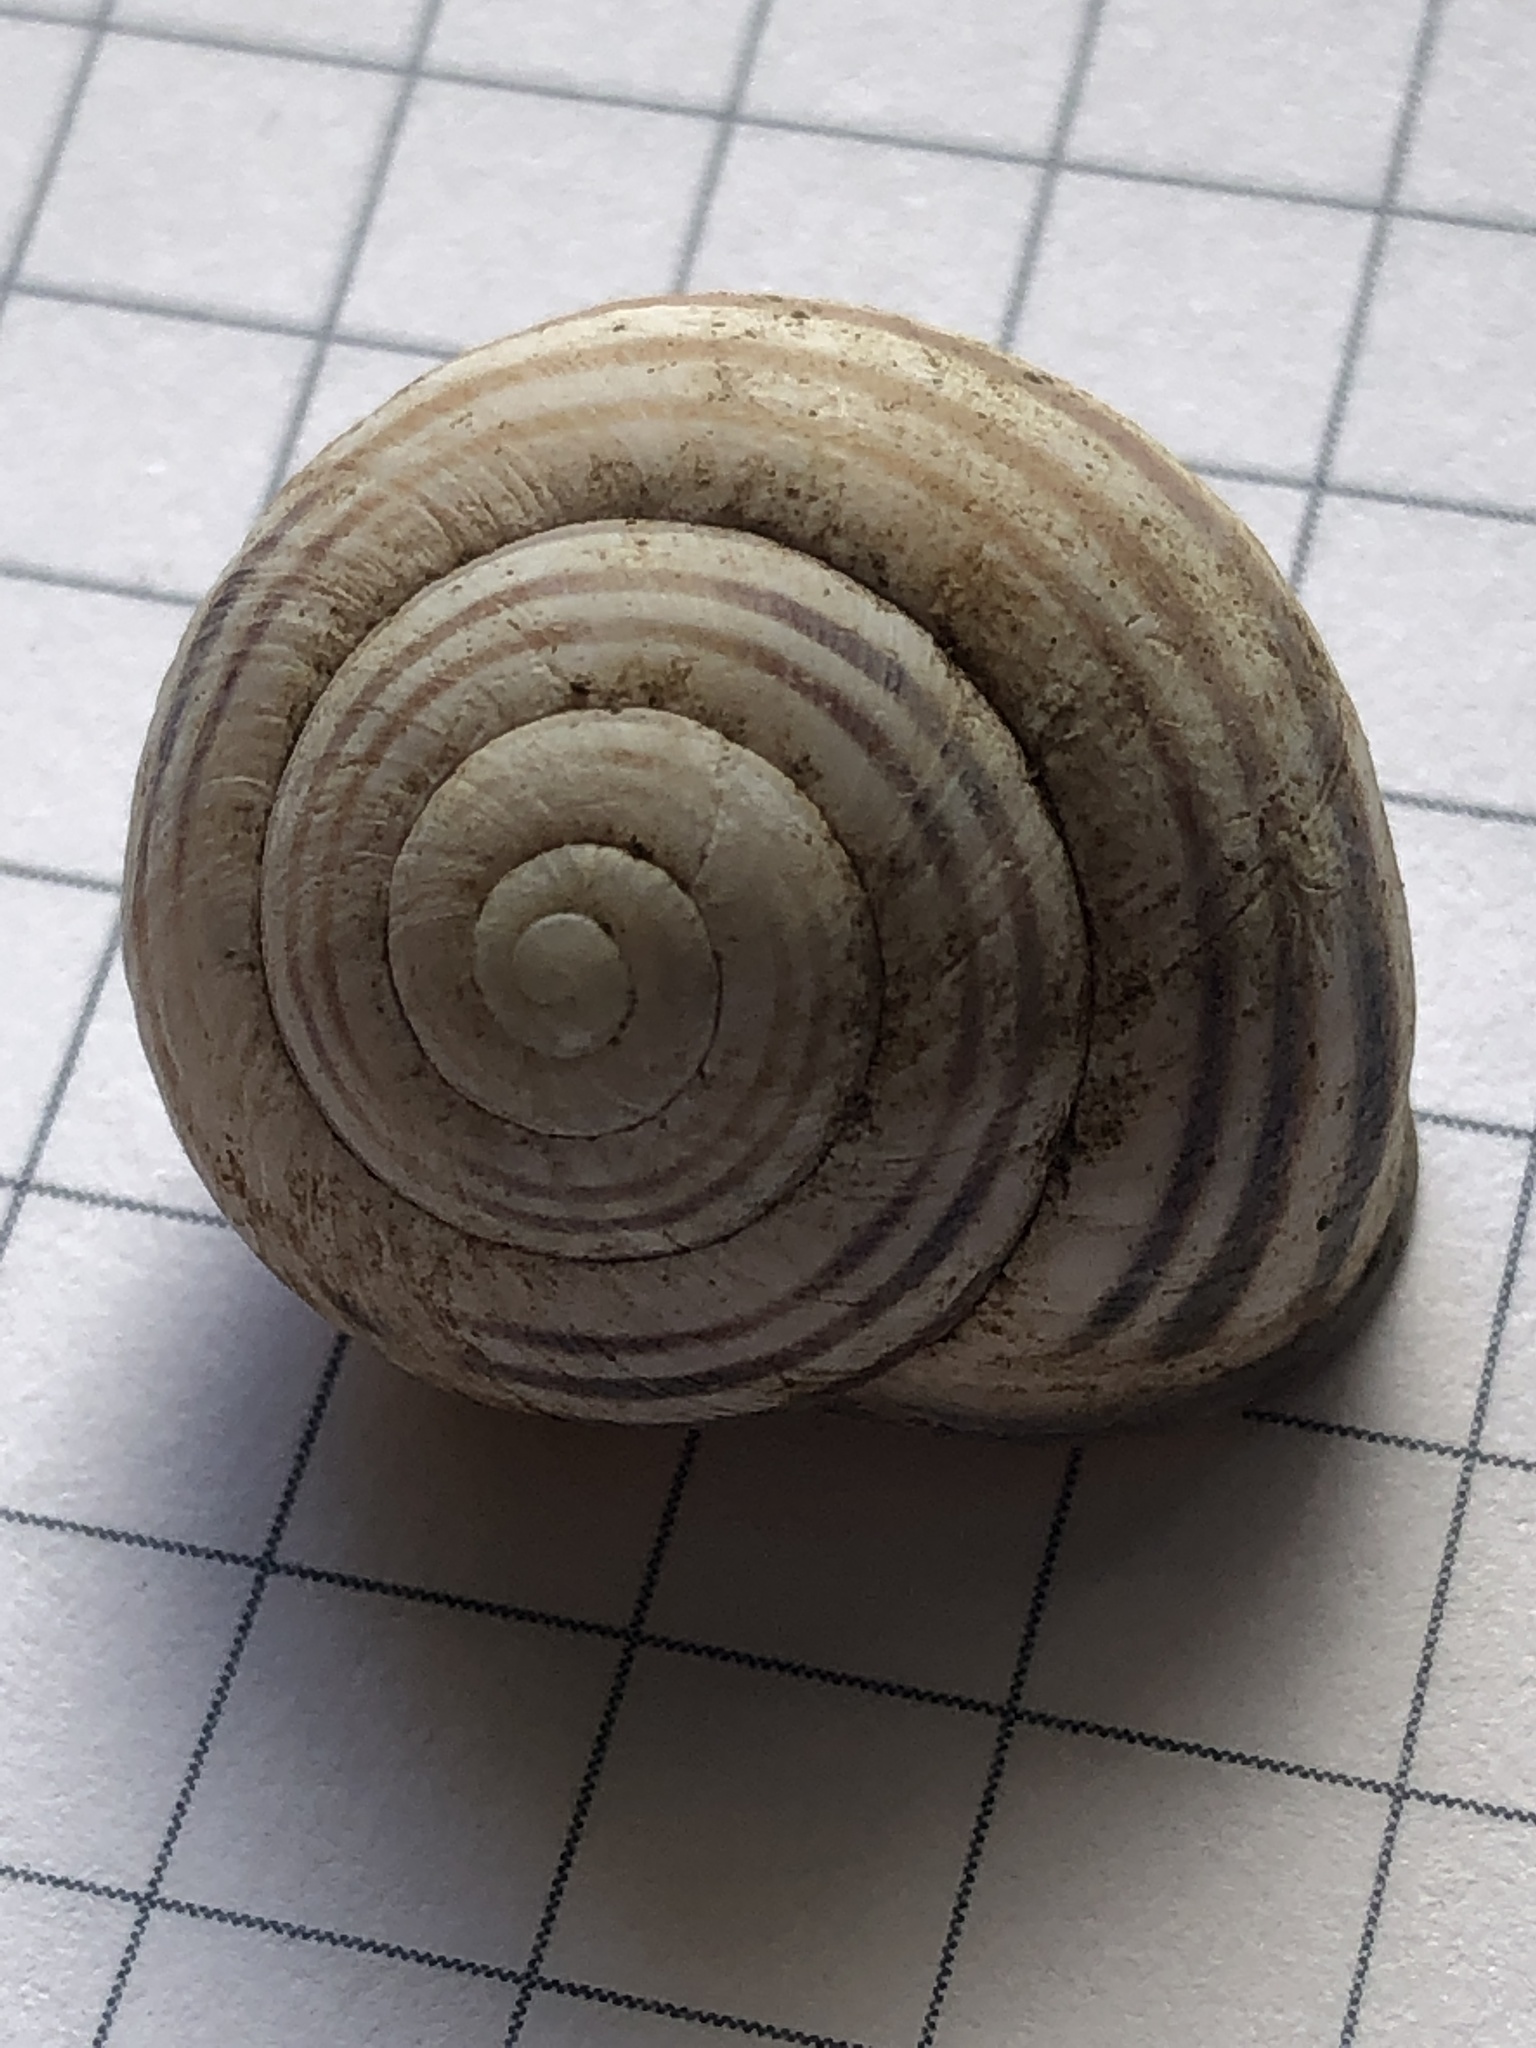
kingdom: Animalia
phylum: Mollusca
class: Gastropoda
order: Stylommatophora
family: Helicidae
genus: Cepaea
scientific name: Cepaea nemoralis
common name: Grovesnail
